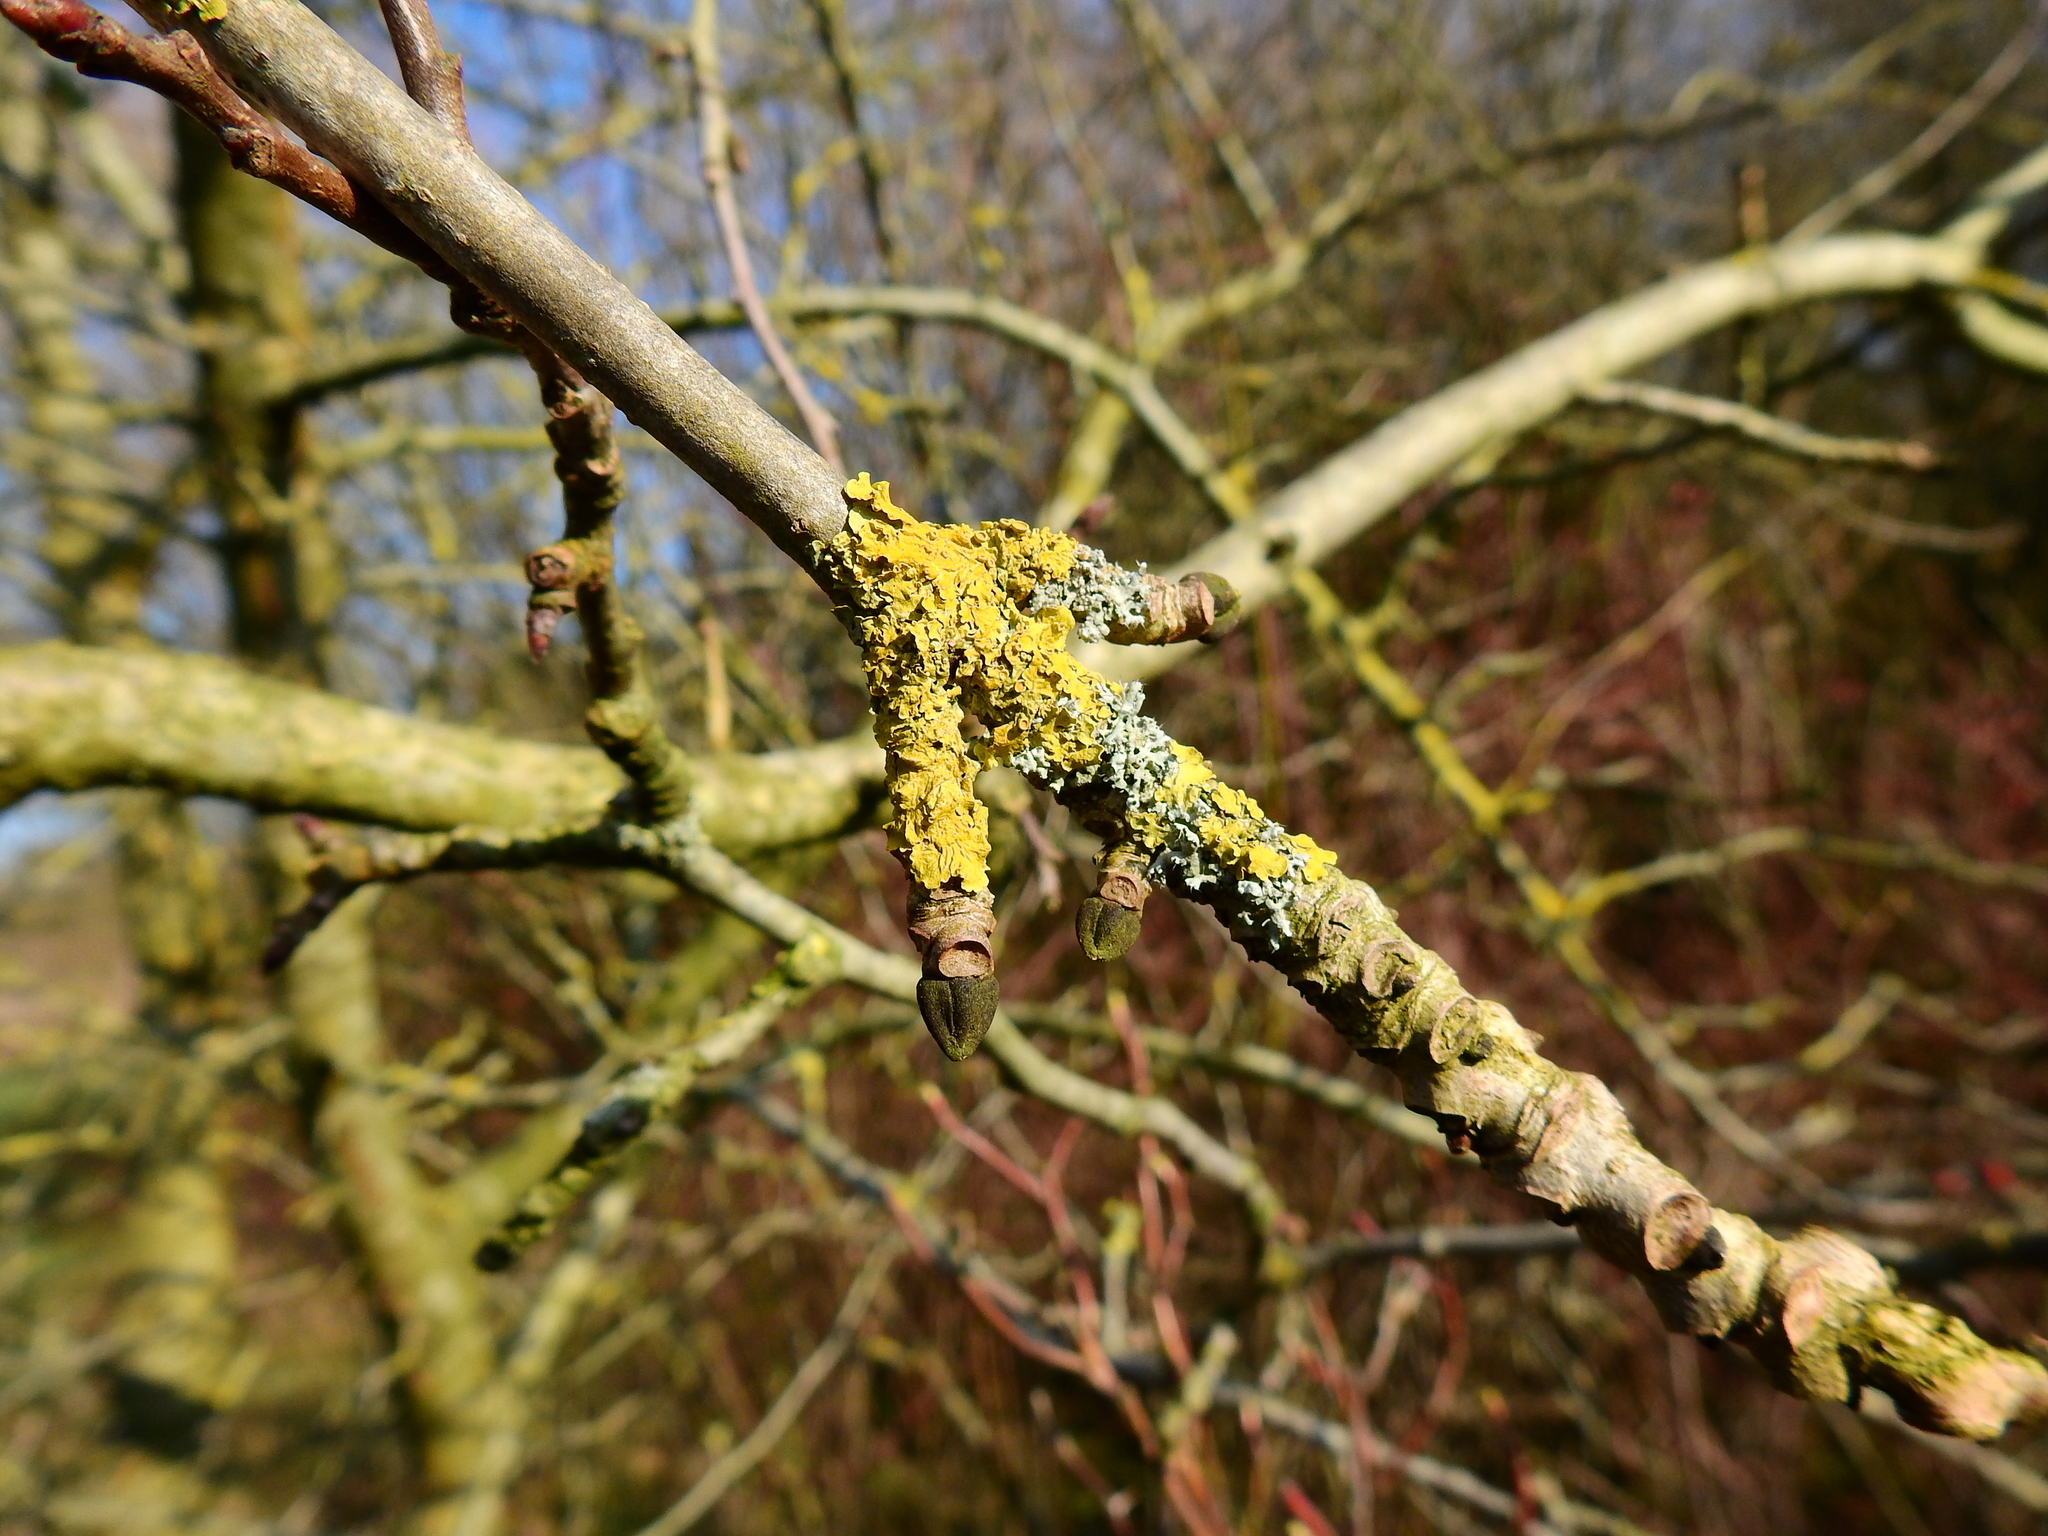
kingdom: Fungi
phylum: Ascomycota
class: Lecanoromycetes
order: Teloschistales
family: Teloschistaceae
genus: Xanthoria
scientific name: Xanthoria parietina
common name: Common orange lichen
